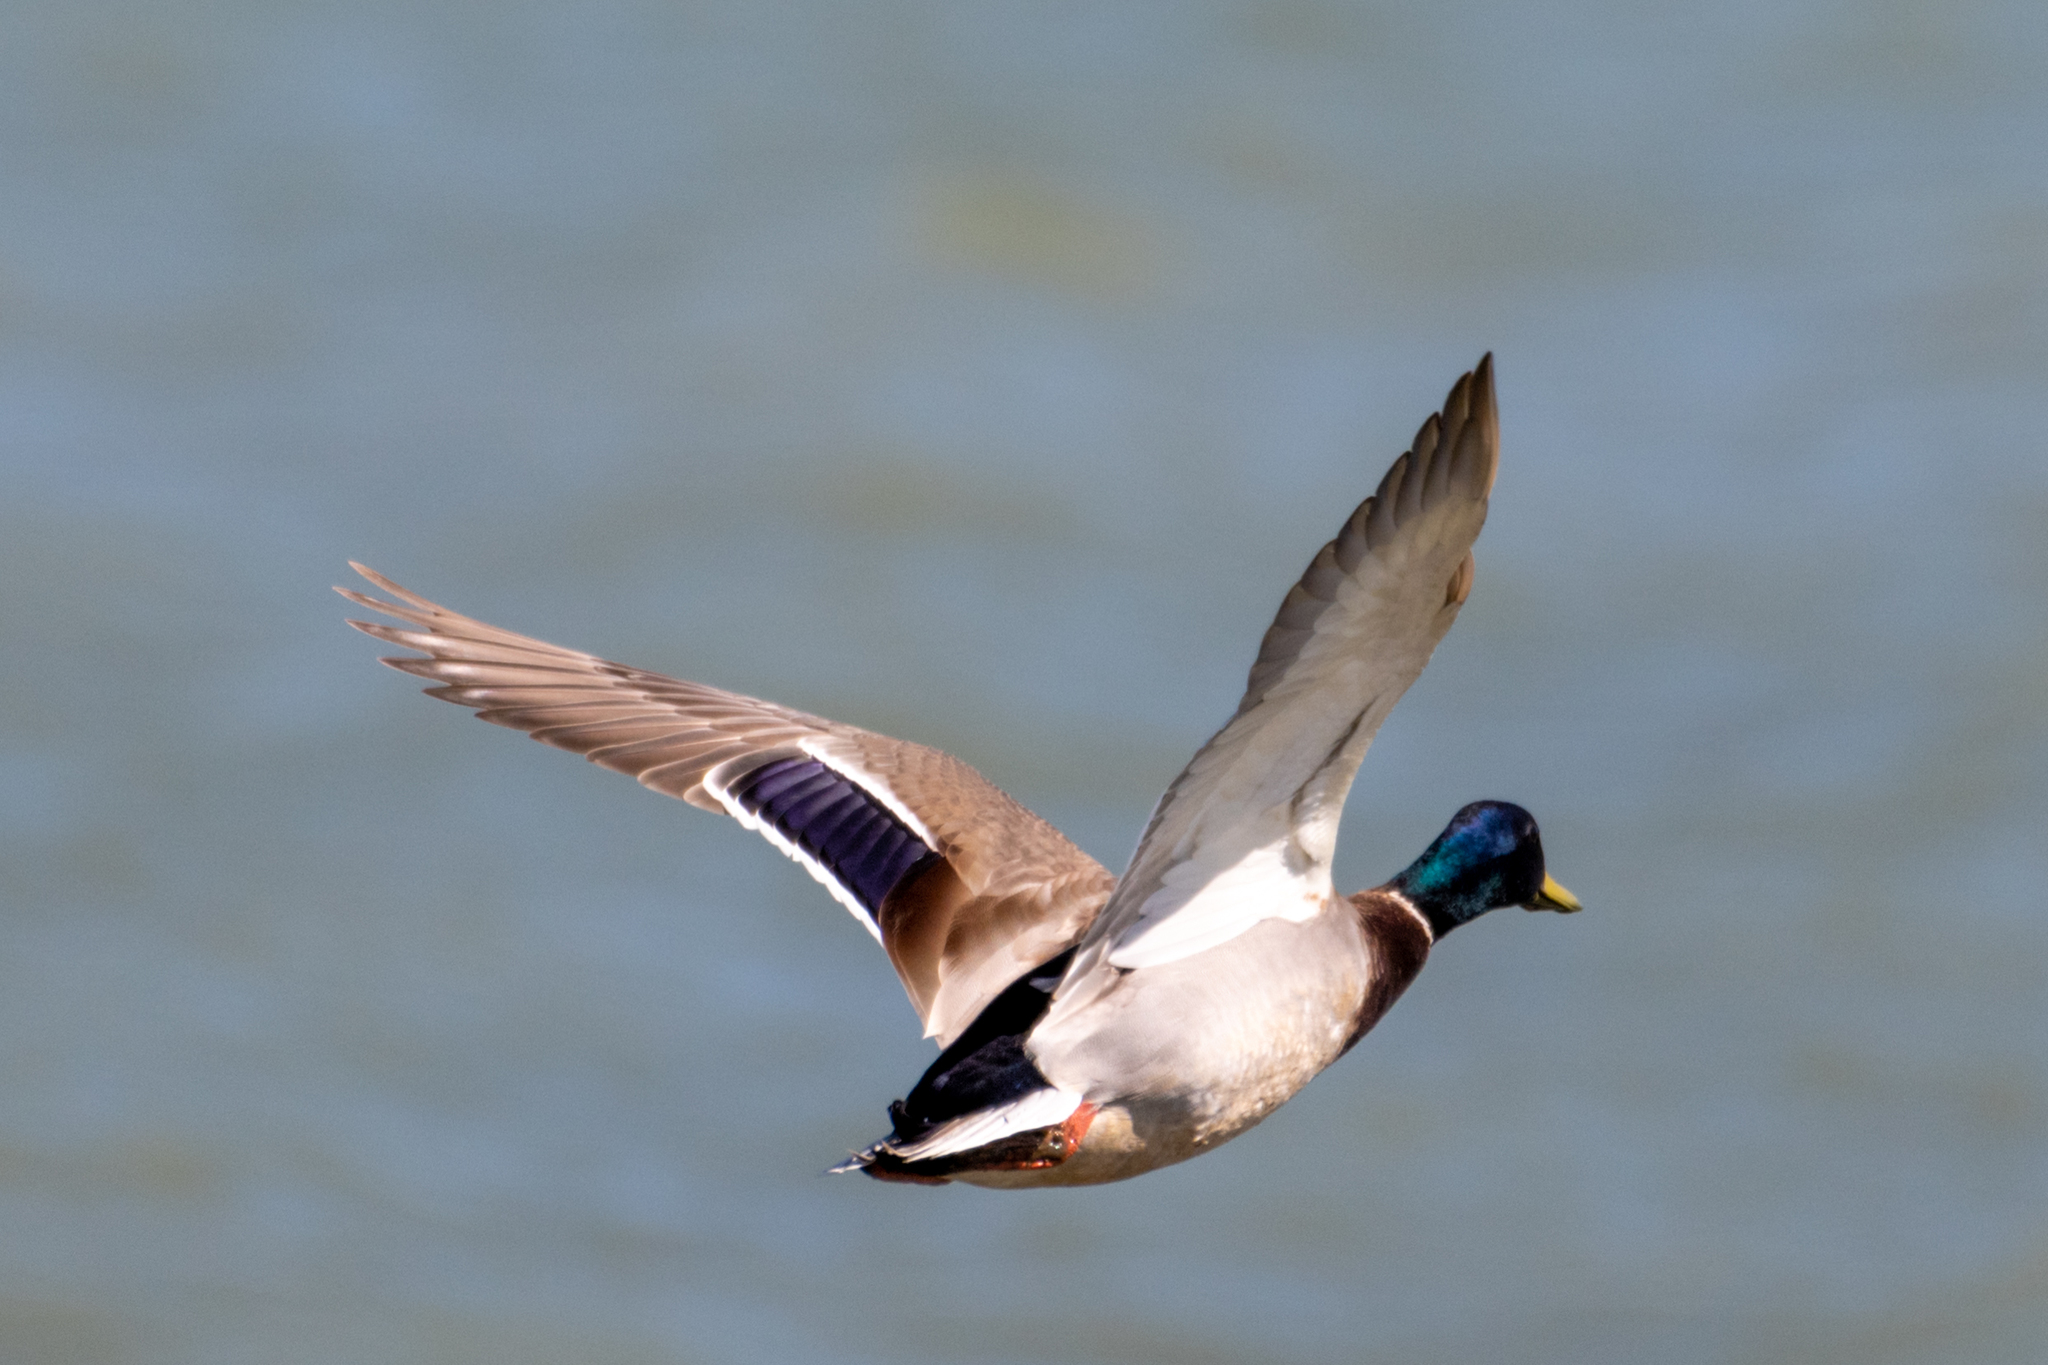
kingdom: Animalia
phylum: Chordata
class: Aves
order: Anseriformes
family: Anatidae
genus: Anas
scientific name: Anas platyrhynchos
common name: Mallard
